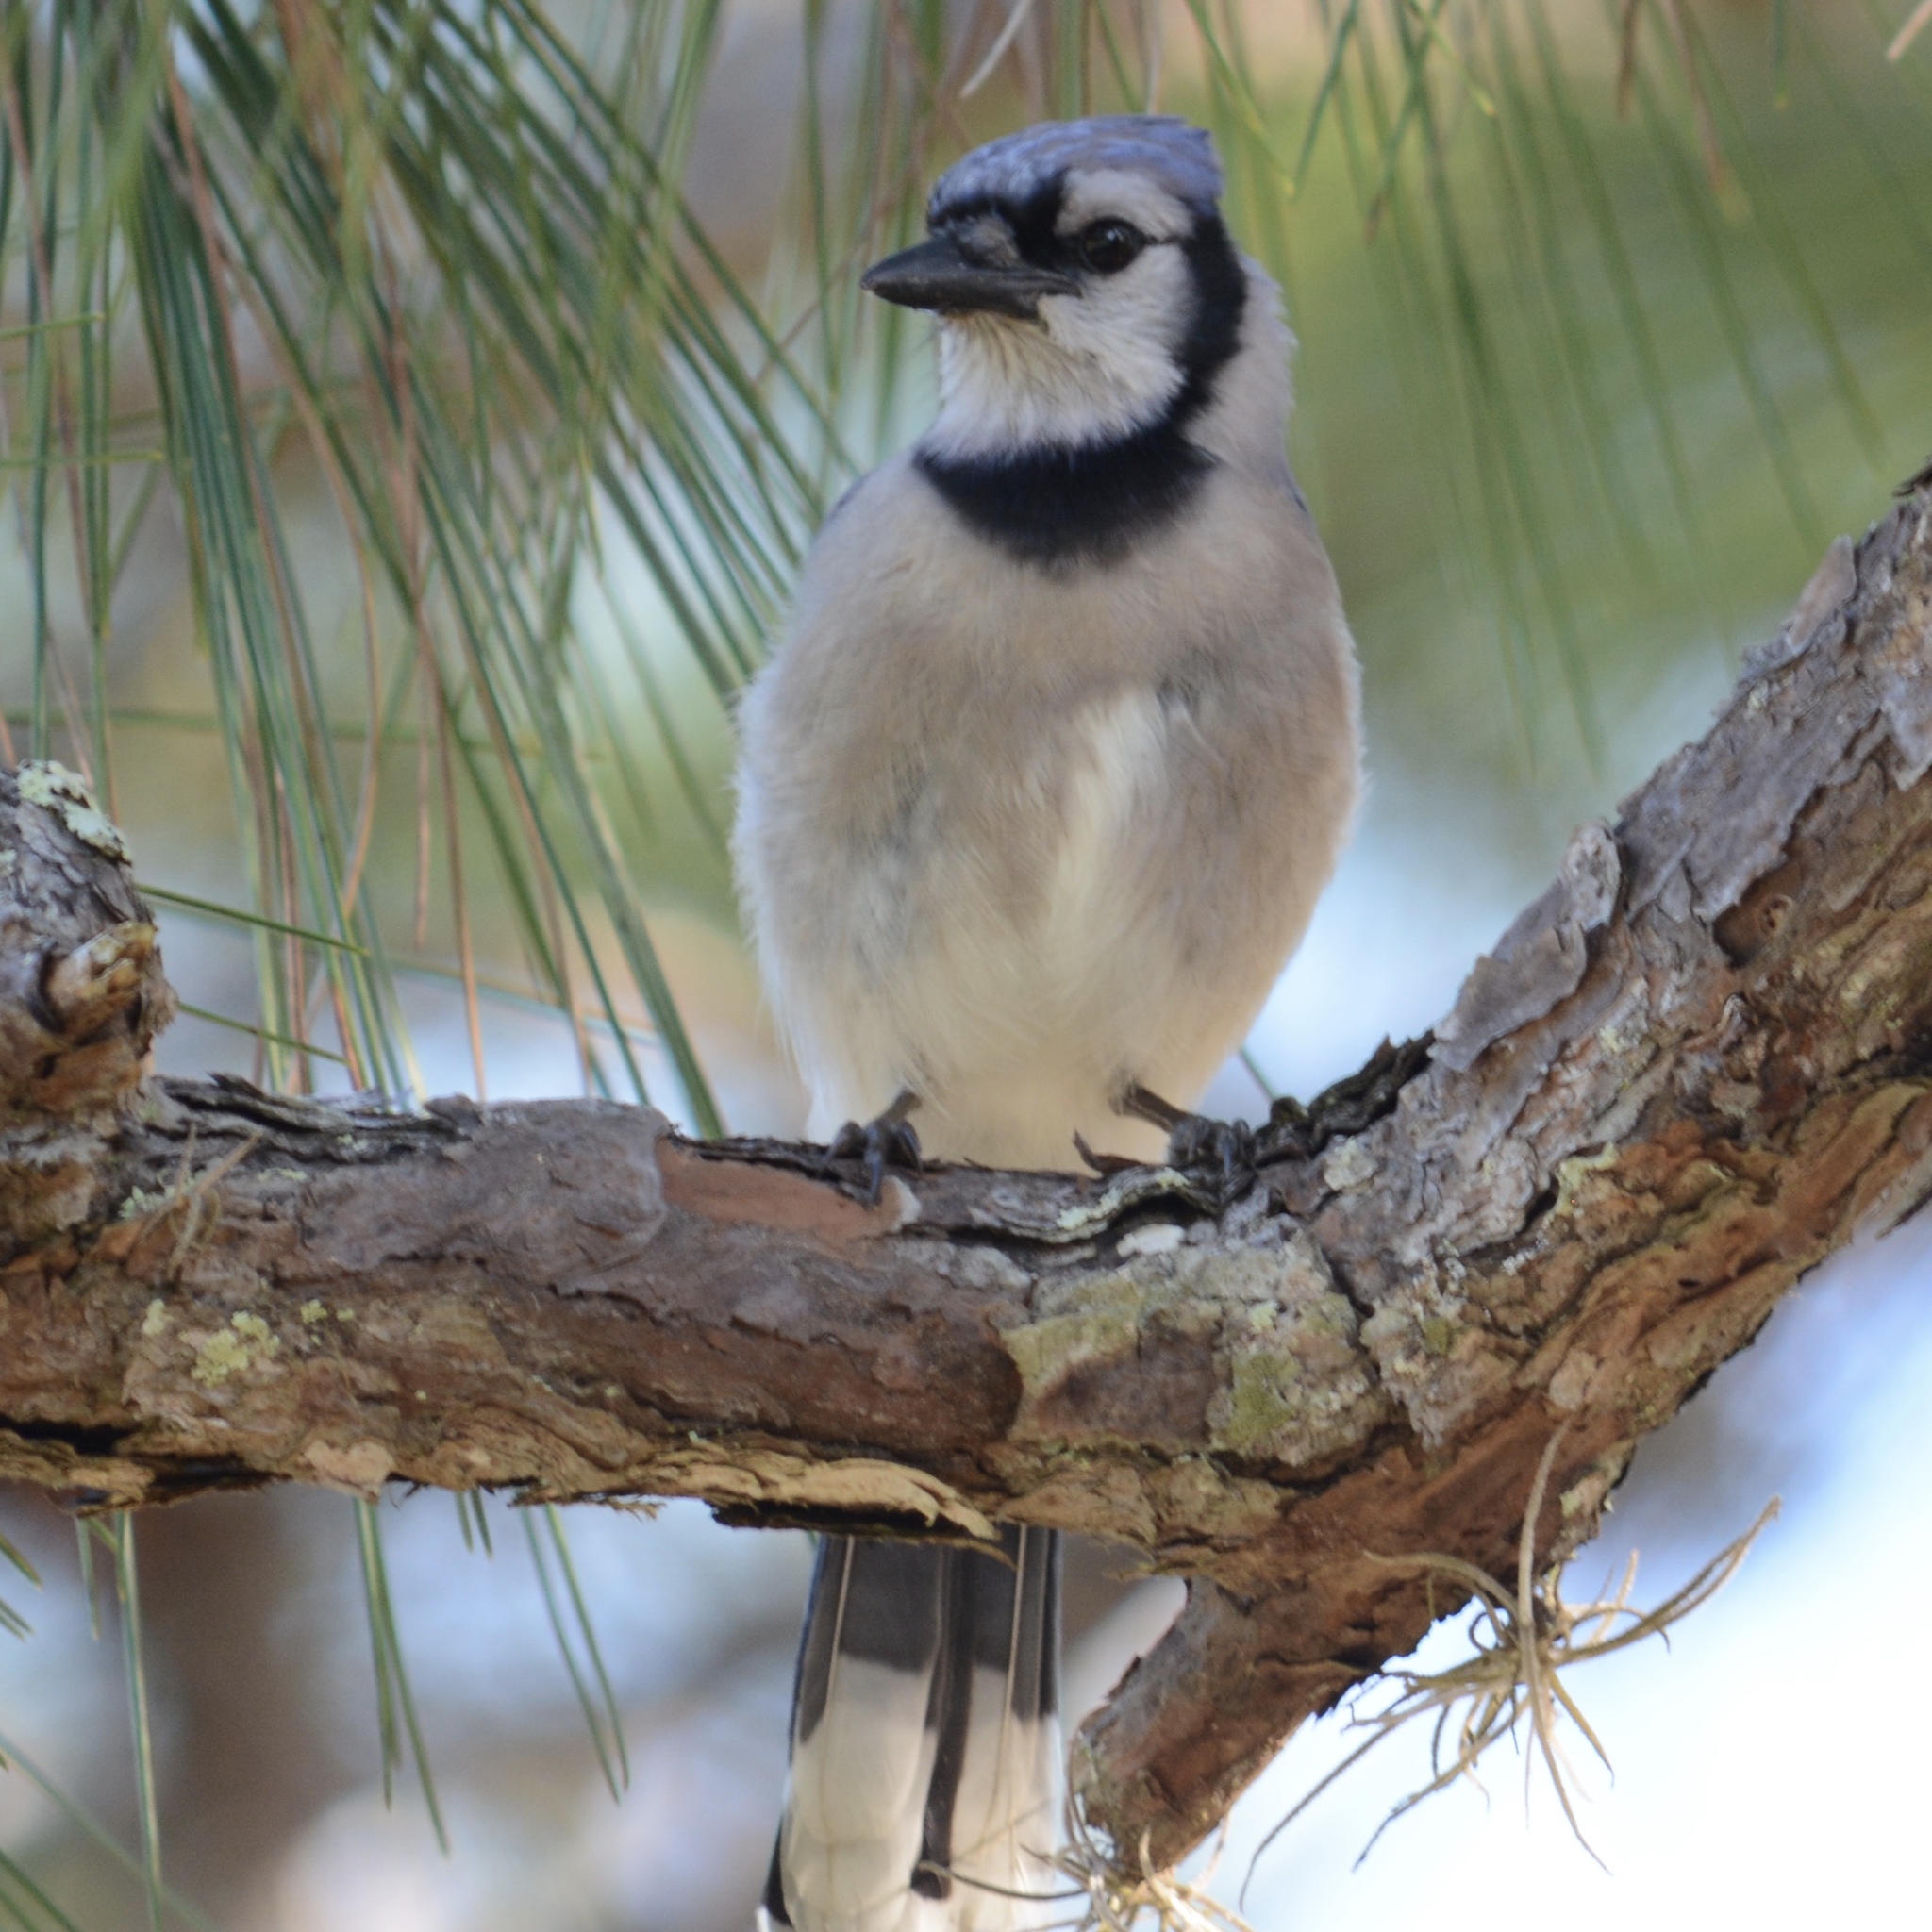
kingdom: Animalia
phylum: Chordata
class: Aves
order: Passeriformes
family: Corvidae
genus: Cyanocitta
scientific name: Cyanocitta cristata
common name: Blue jay
